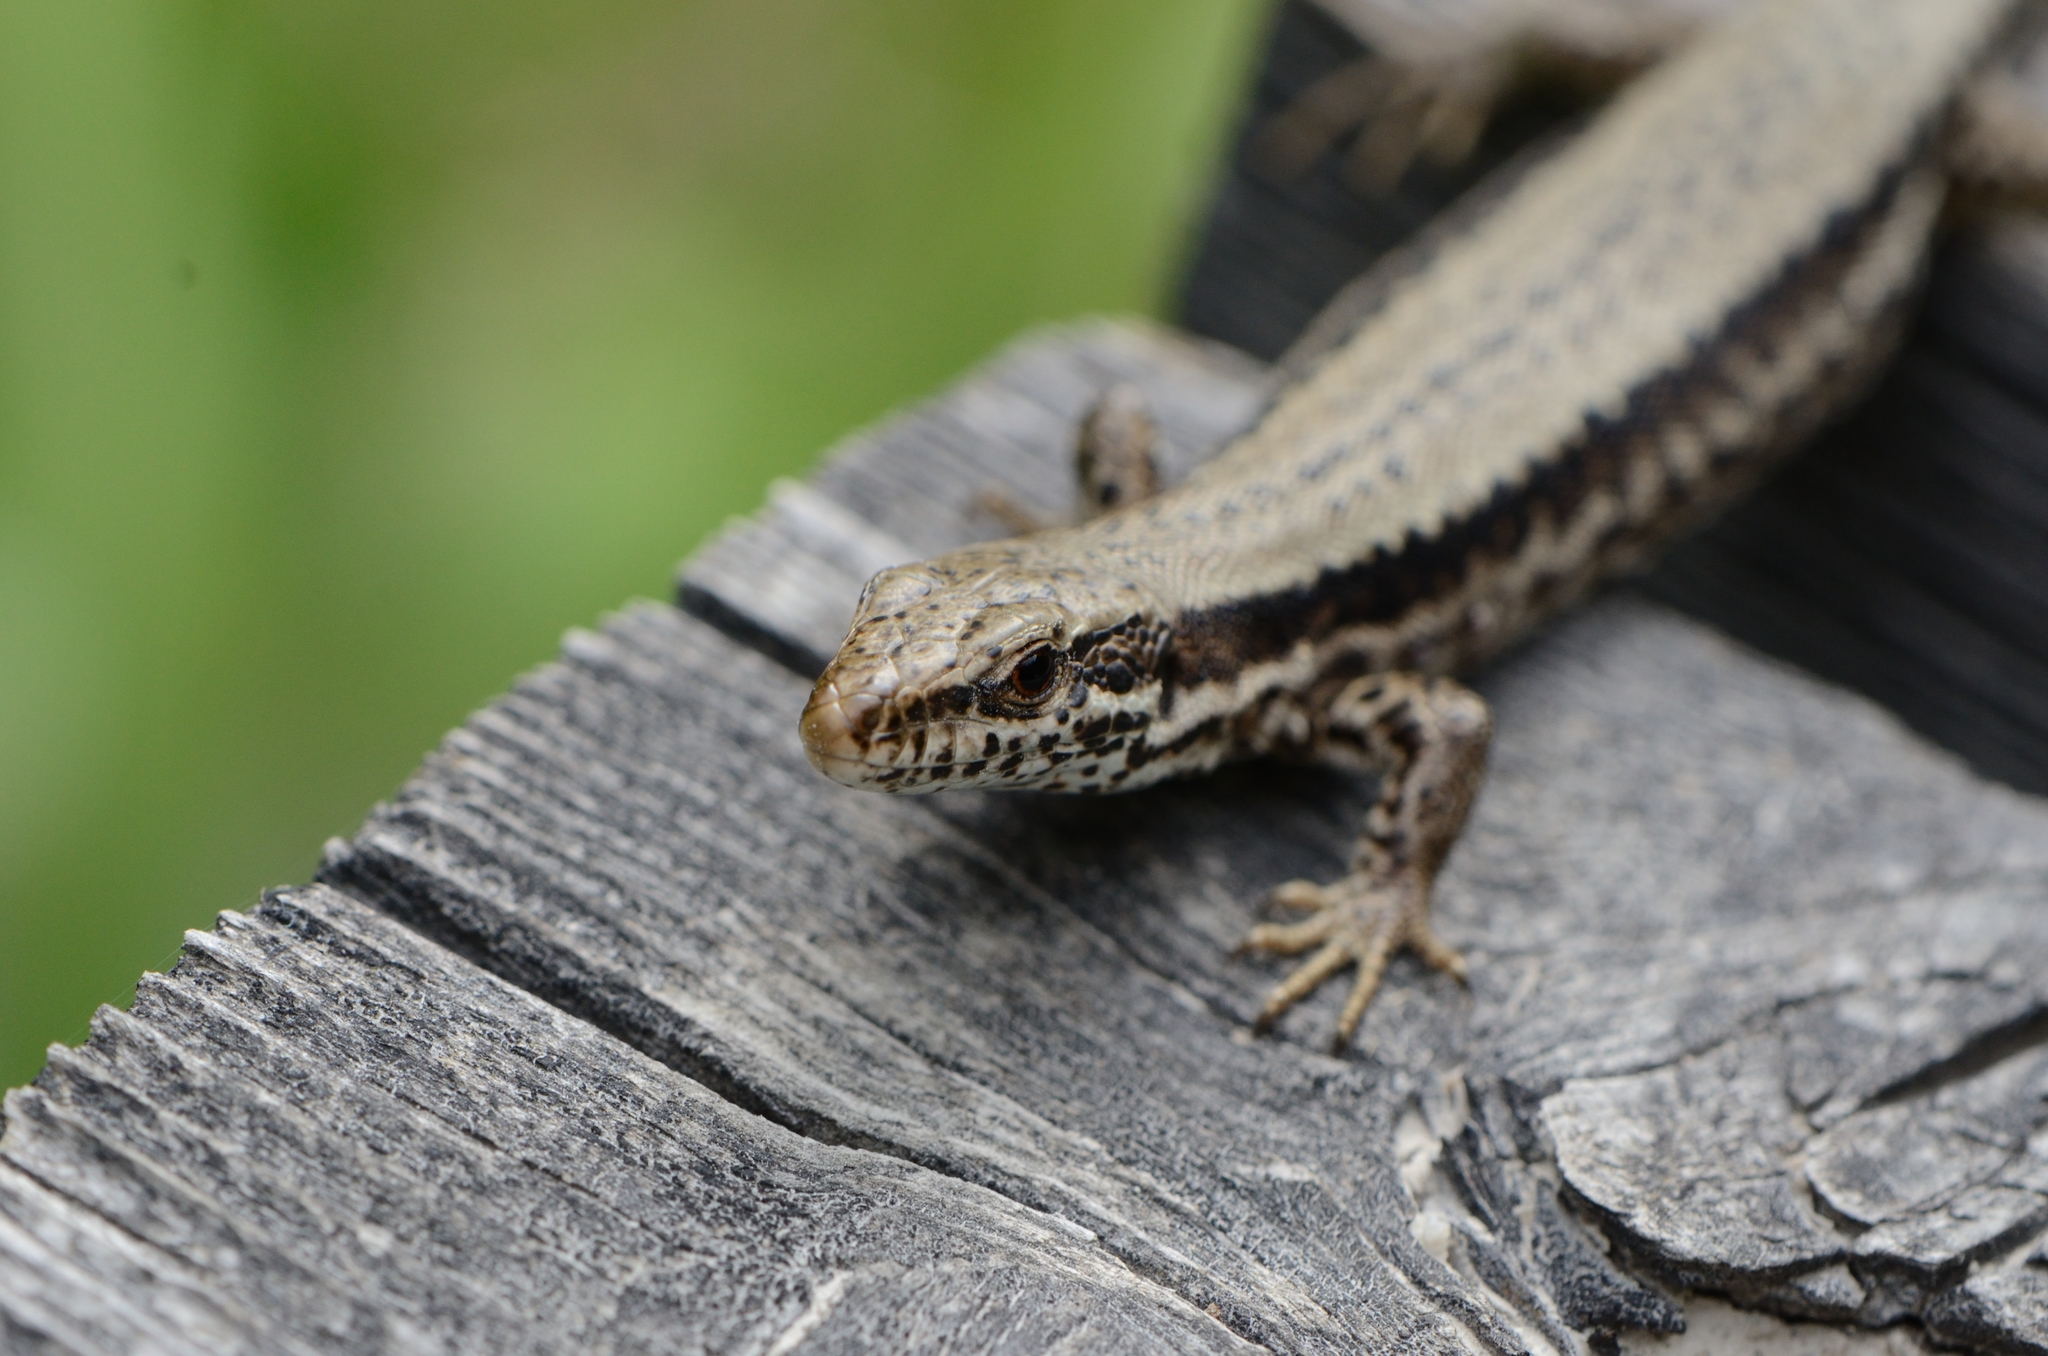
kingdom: Animalia
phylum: Chordata
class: Squamata
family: Lacertidae
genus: Podarcis
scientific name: Podarcis muralis
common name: Common wall lizard
